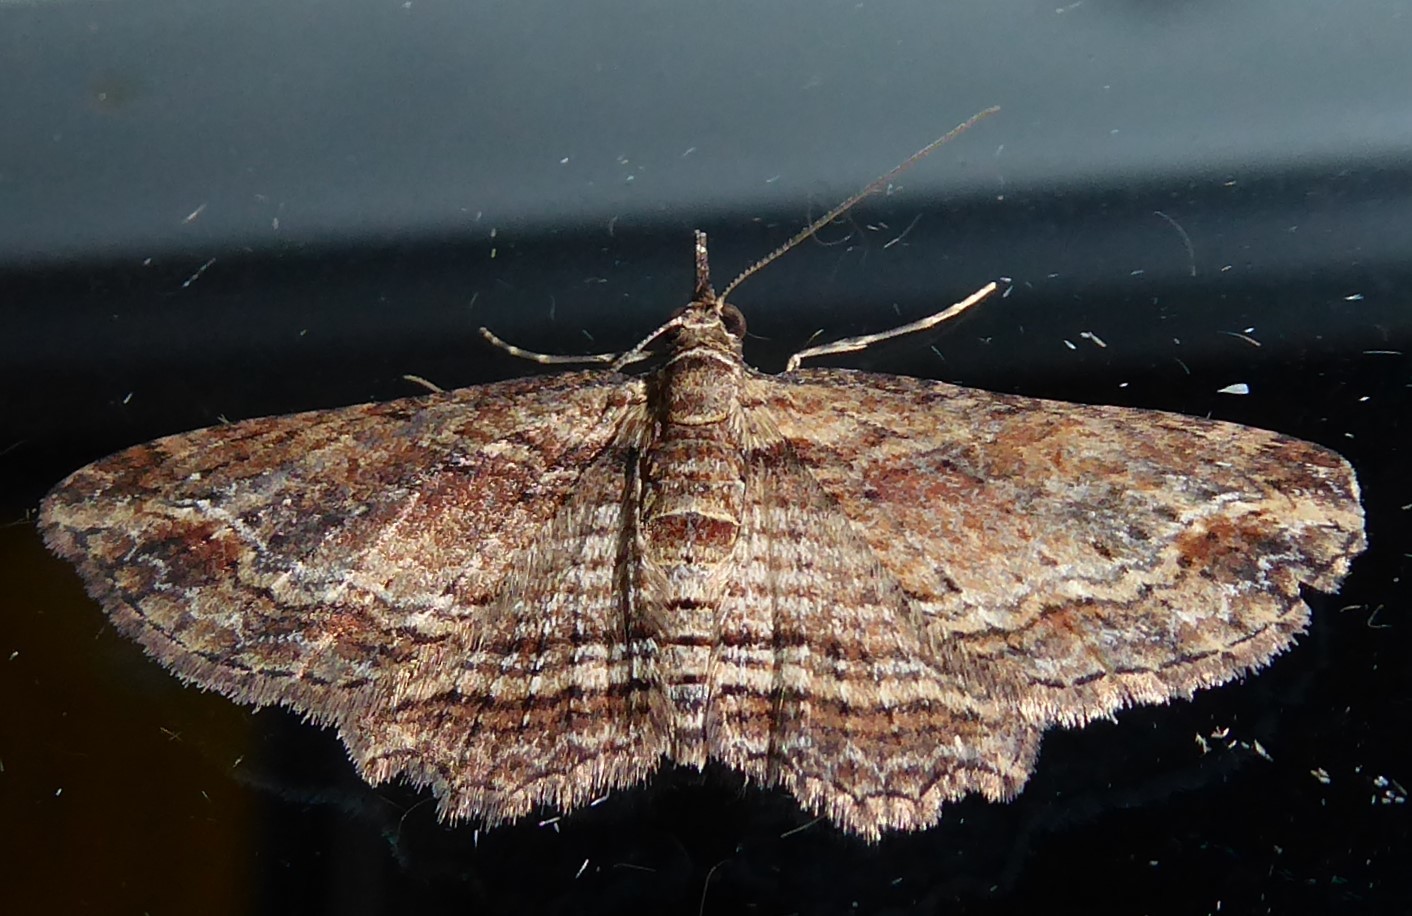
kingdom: Animalia
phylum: Arthropoda
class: Insecta
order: Lepidoptera
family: Geometridae
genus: Chloroclystis
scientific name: Chloroclystis filata
